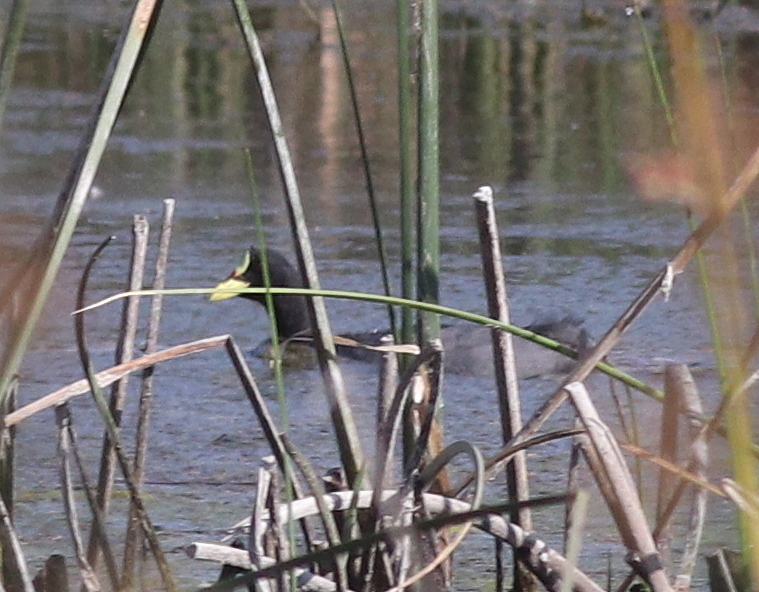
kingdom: Animalia
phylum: Chordata
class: Aves
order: Gruiformes
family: Rallidae
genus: Fulica
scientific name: Fulica armillata
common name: Red-gartered coot
